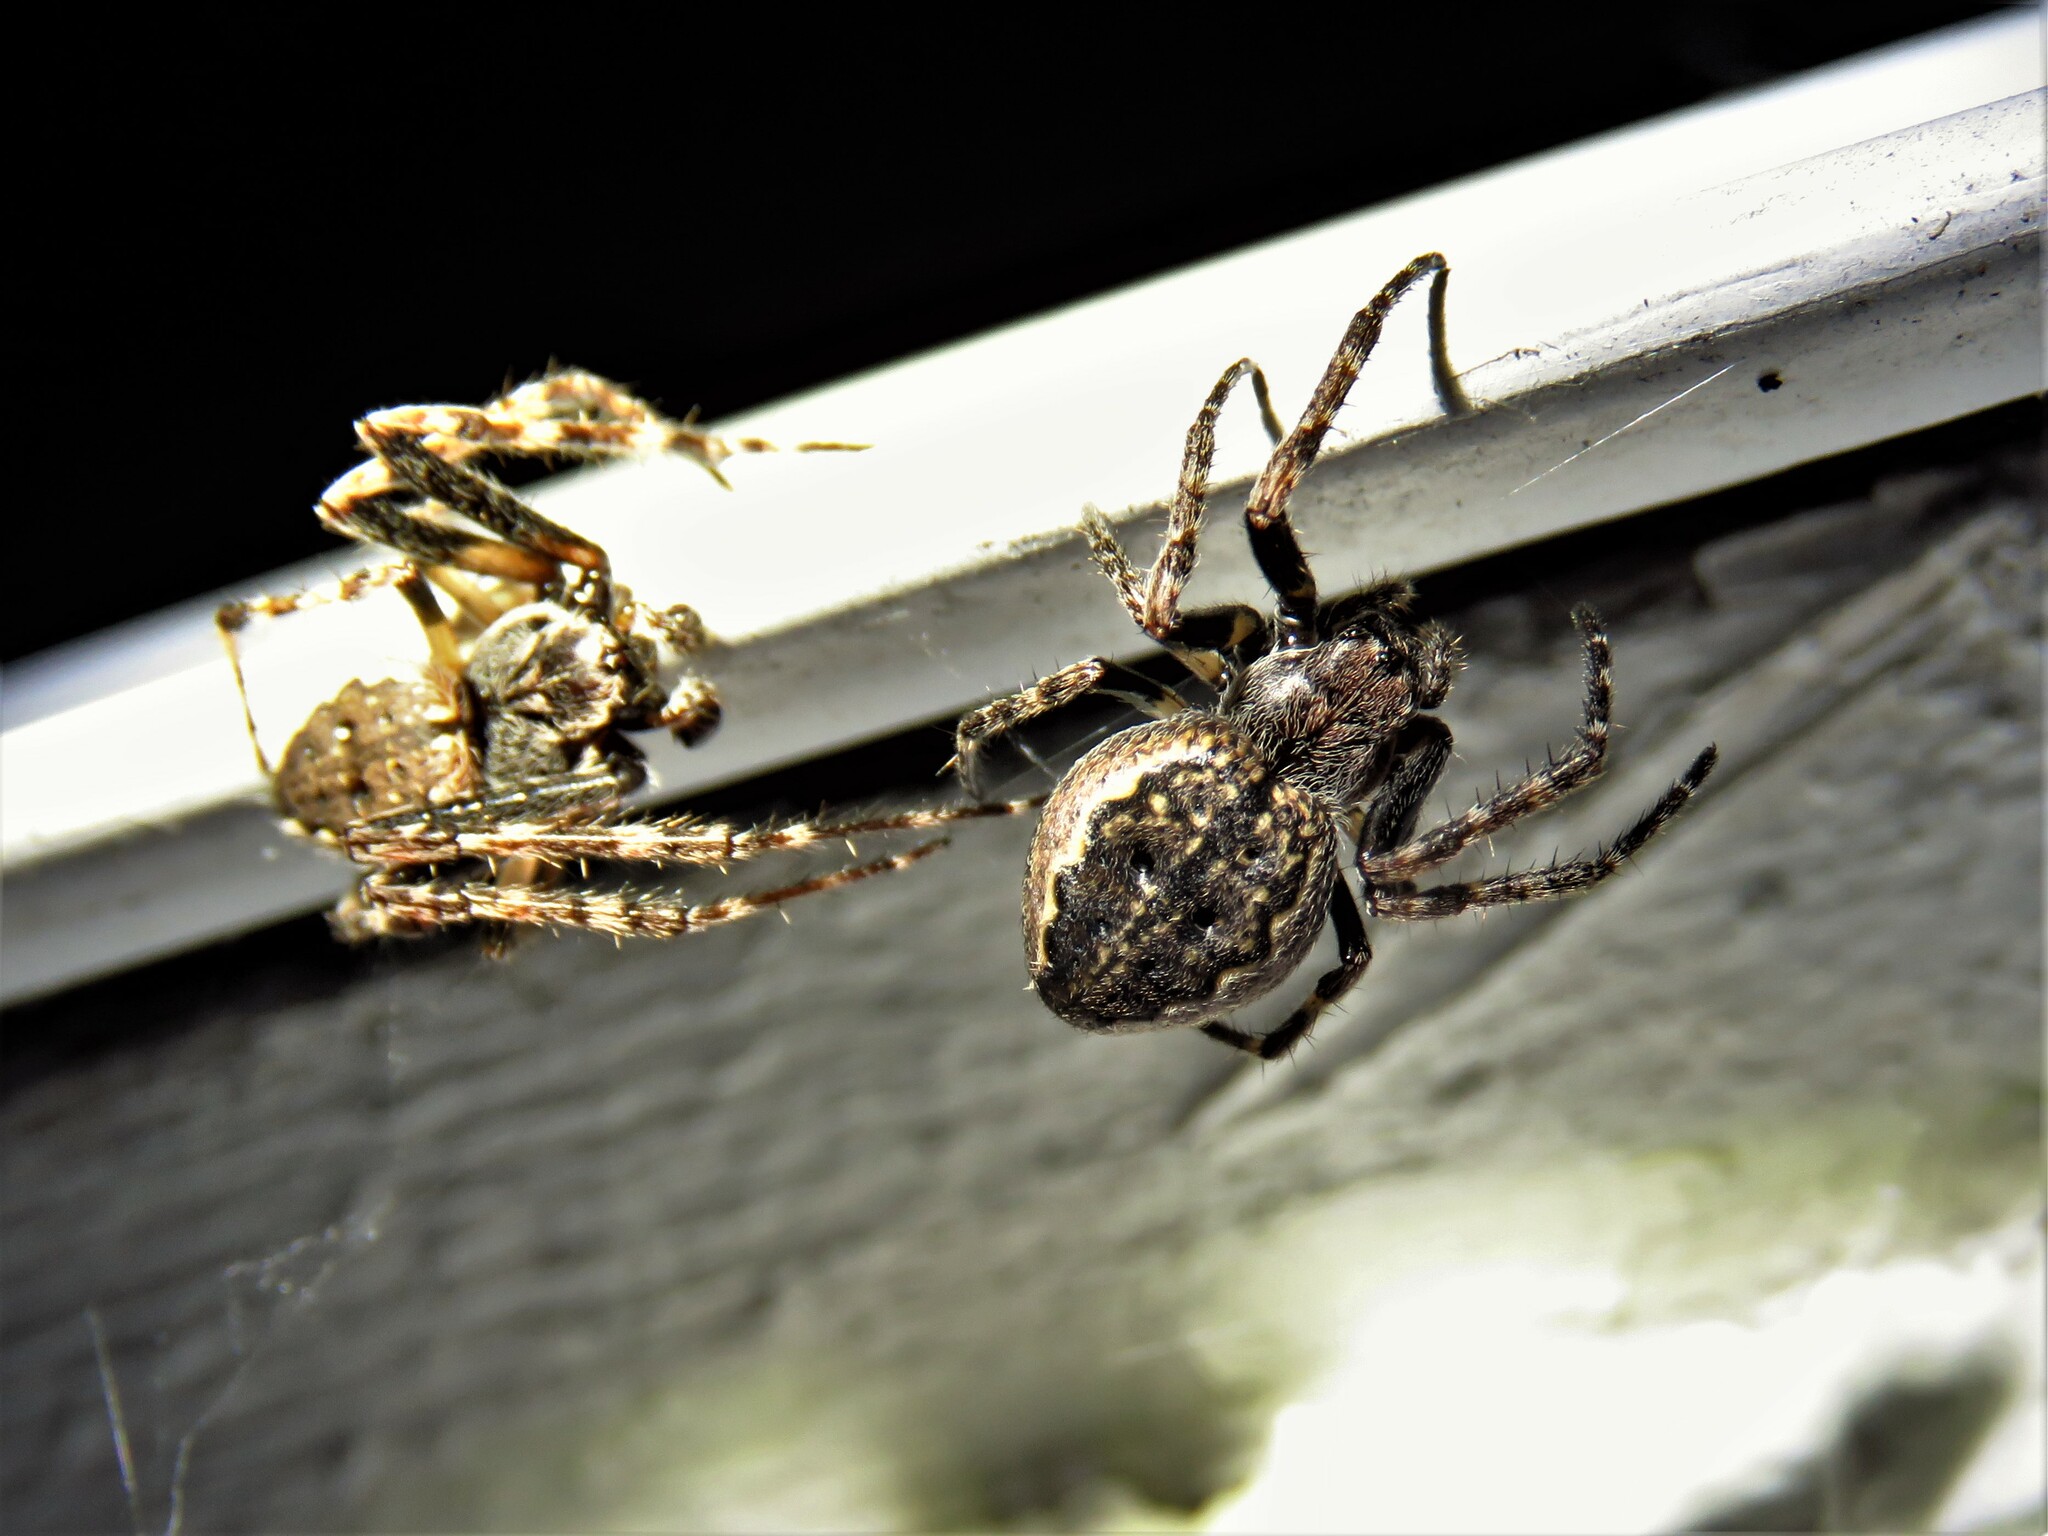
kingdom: Animalia
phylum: Arthropoda
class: Arachnida
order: Araneae
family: Araneidae
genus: Nuctenea
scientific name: Nuctenea umbratica
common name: Toad spider
